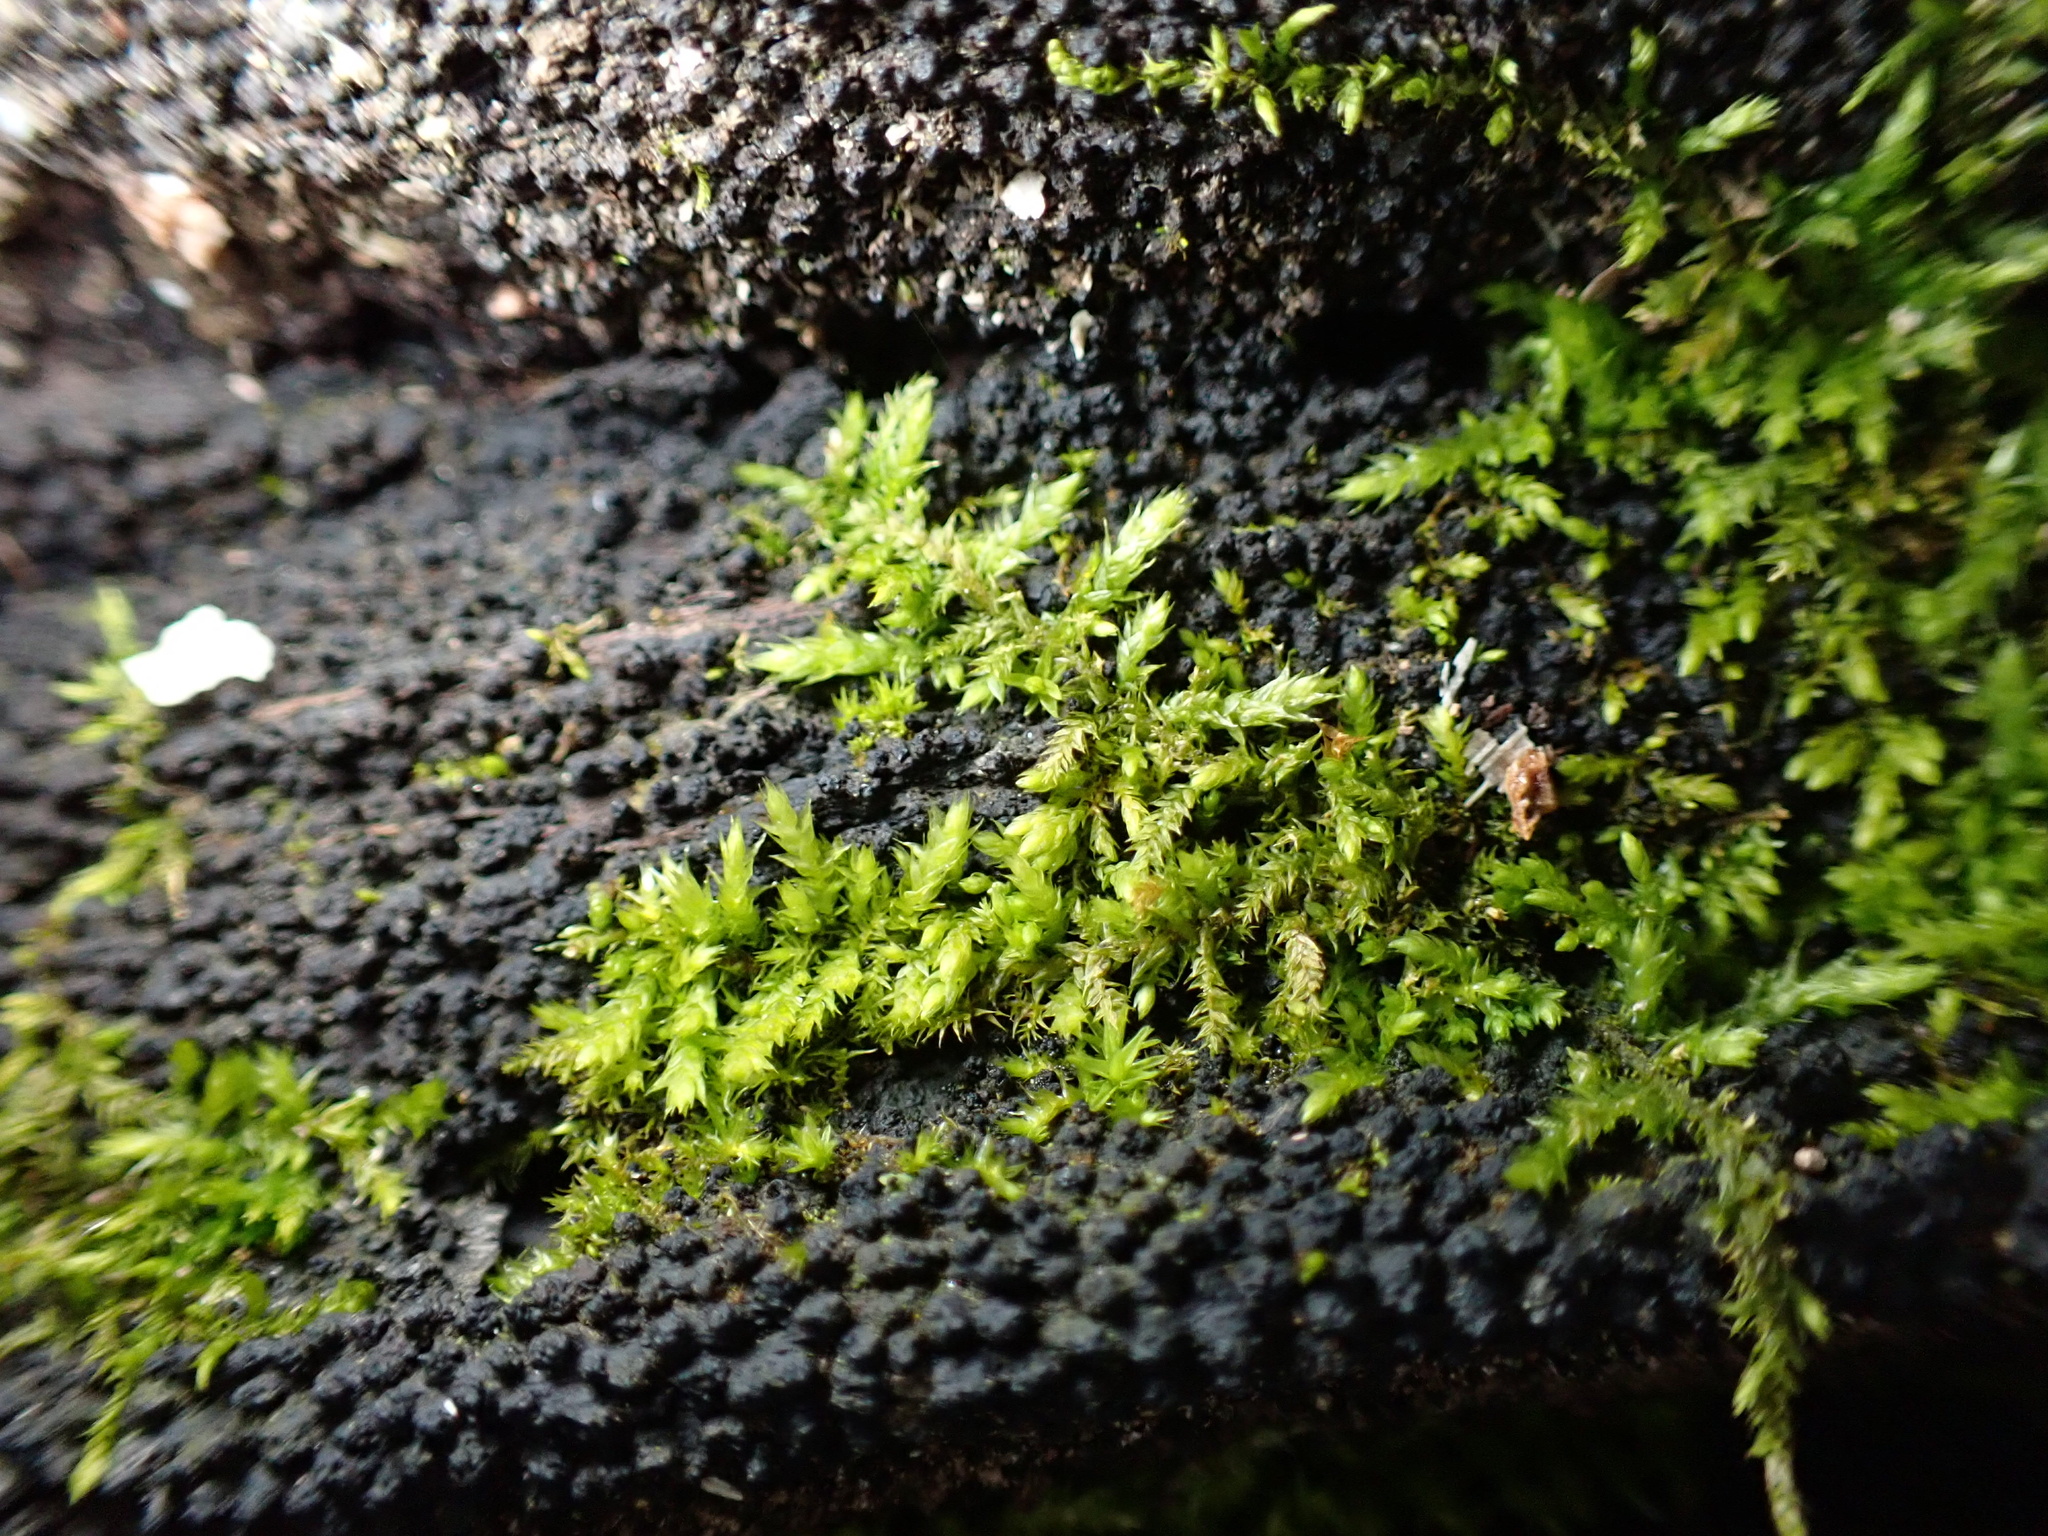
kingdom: Plantae
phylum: Bryophyta
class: Bryopsida
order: Hypnales
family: Brachytheciaceae
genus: Brachythecium
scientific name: Brachythecium rutabulum
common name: Rough-stalked feather-moss
